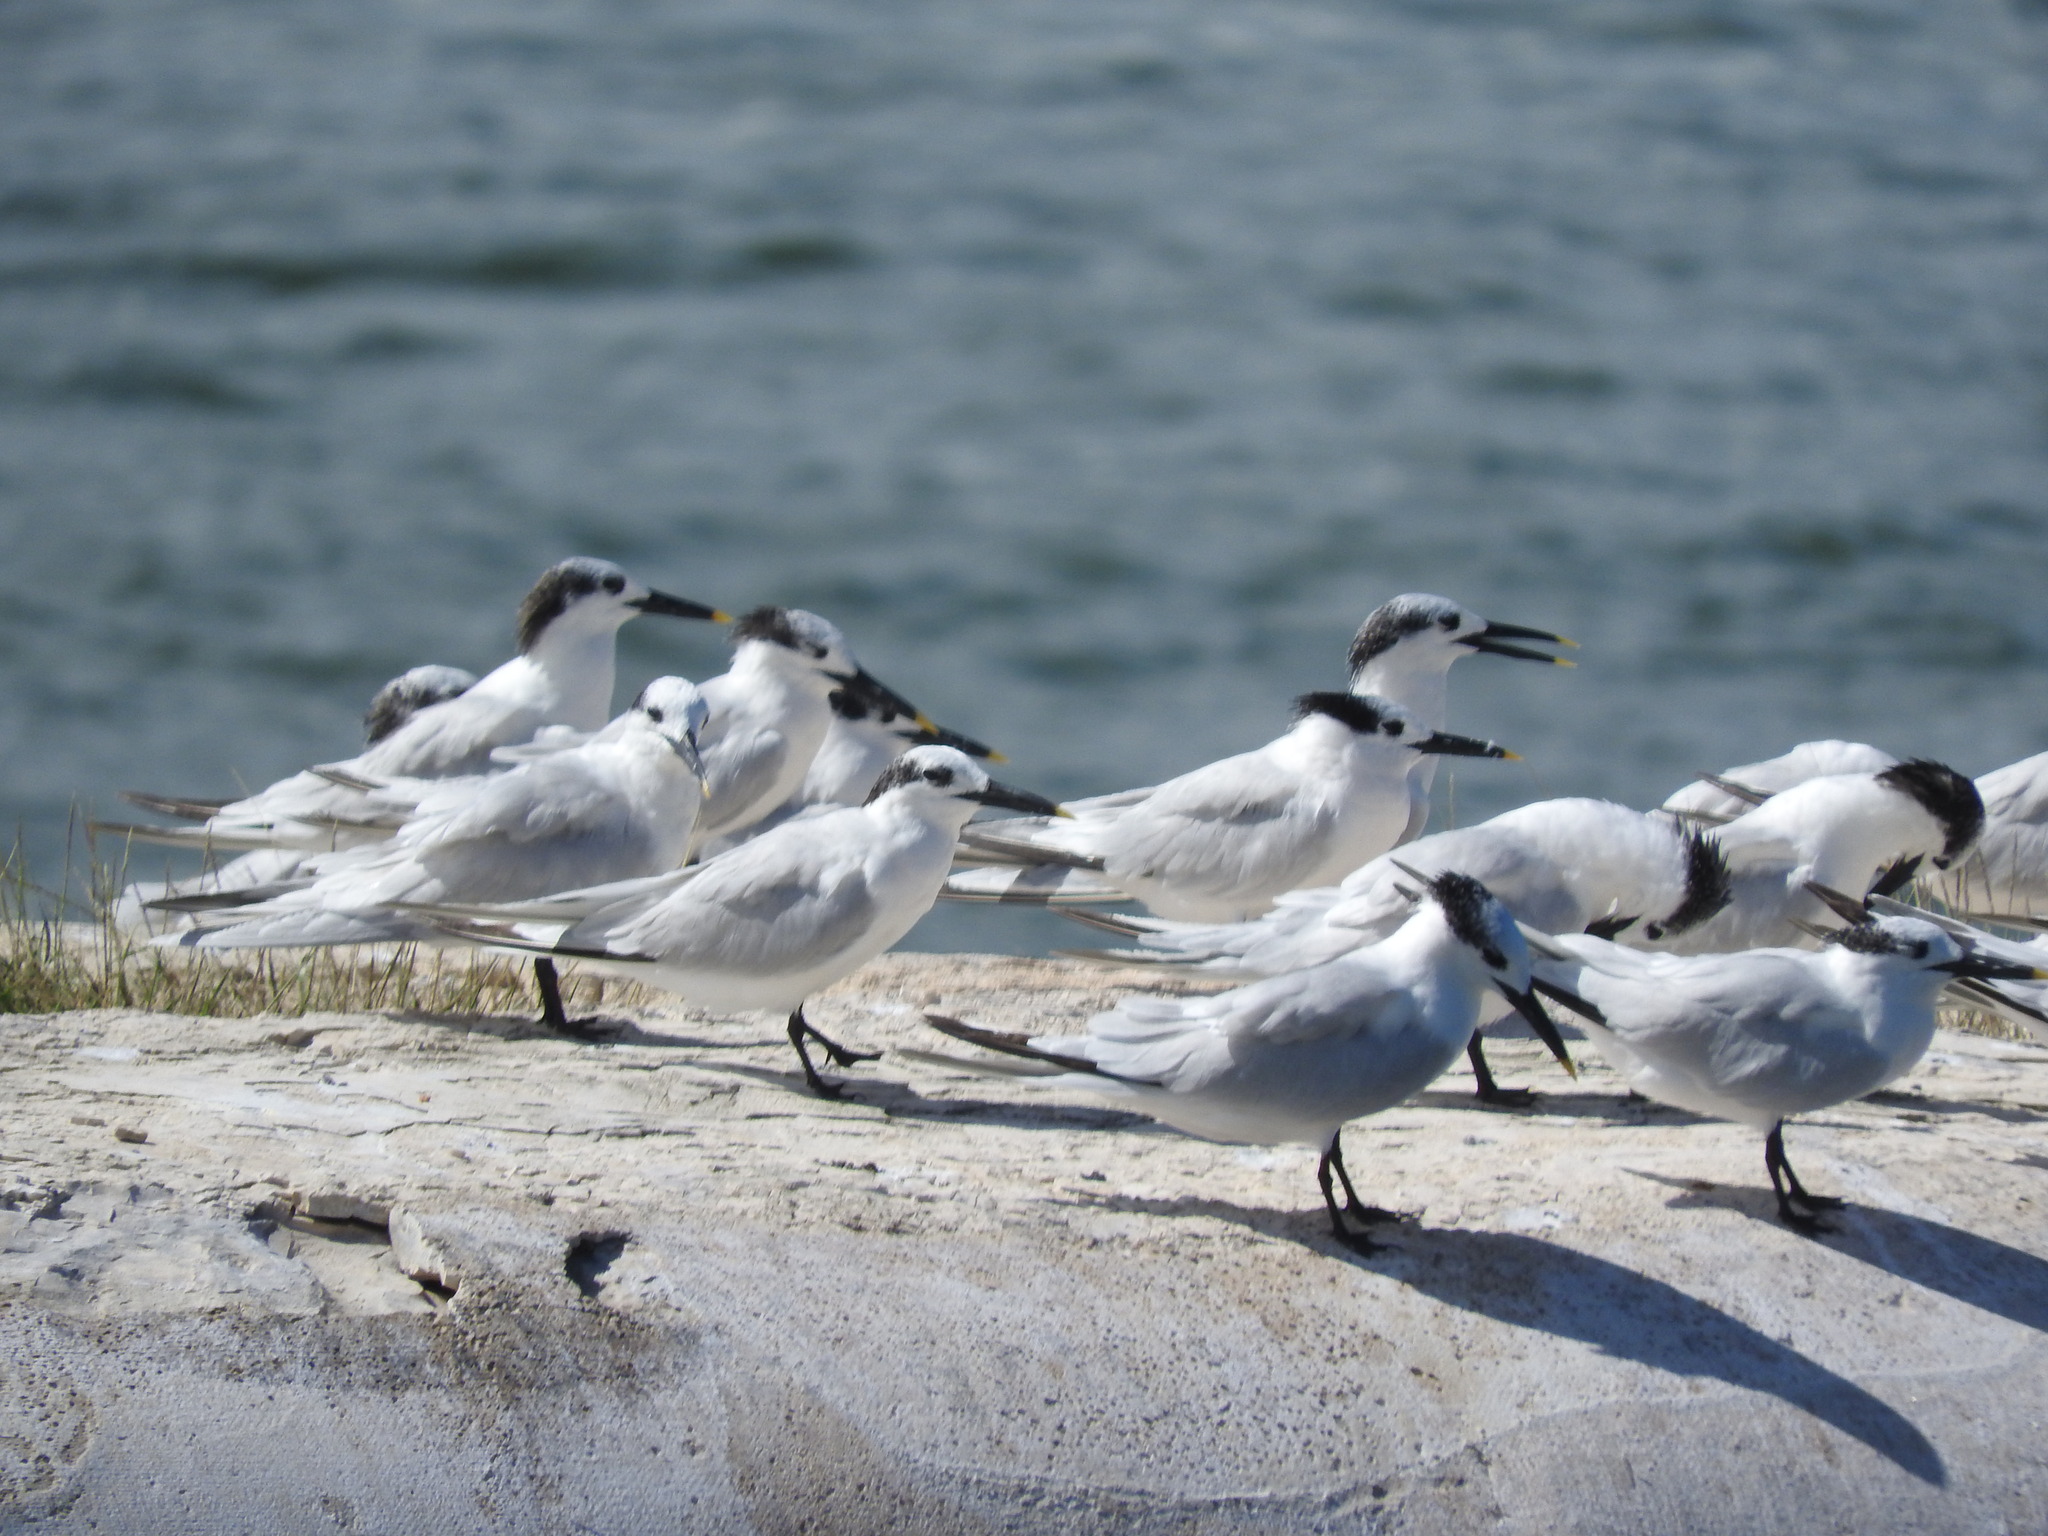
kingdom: Animalia
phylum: Chordata
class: Aves
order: Charadriiformes
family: Laridae
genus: Thalasseus
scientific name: Thalasseus sandvicensis
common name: Sandwich tern
